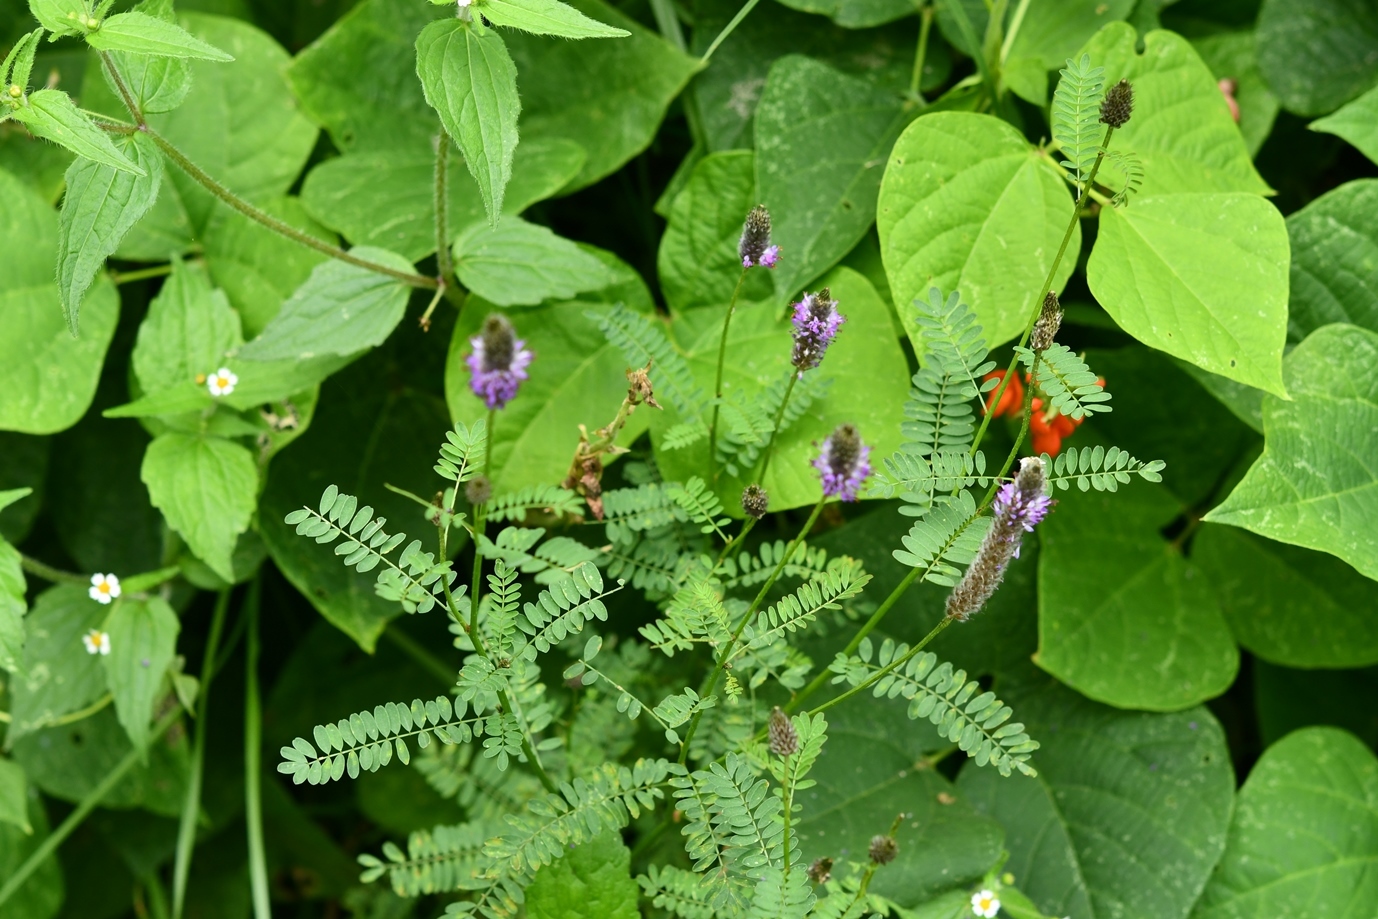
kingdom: Plantae
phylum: Tracheophyta
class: Magnoliopsida
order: Fabales
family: Fabaceae
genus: Dalea
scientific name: Dalea leporina
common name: Foxtail dalea
